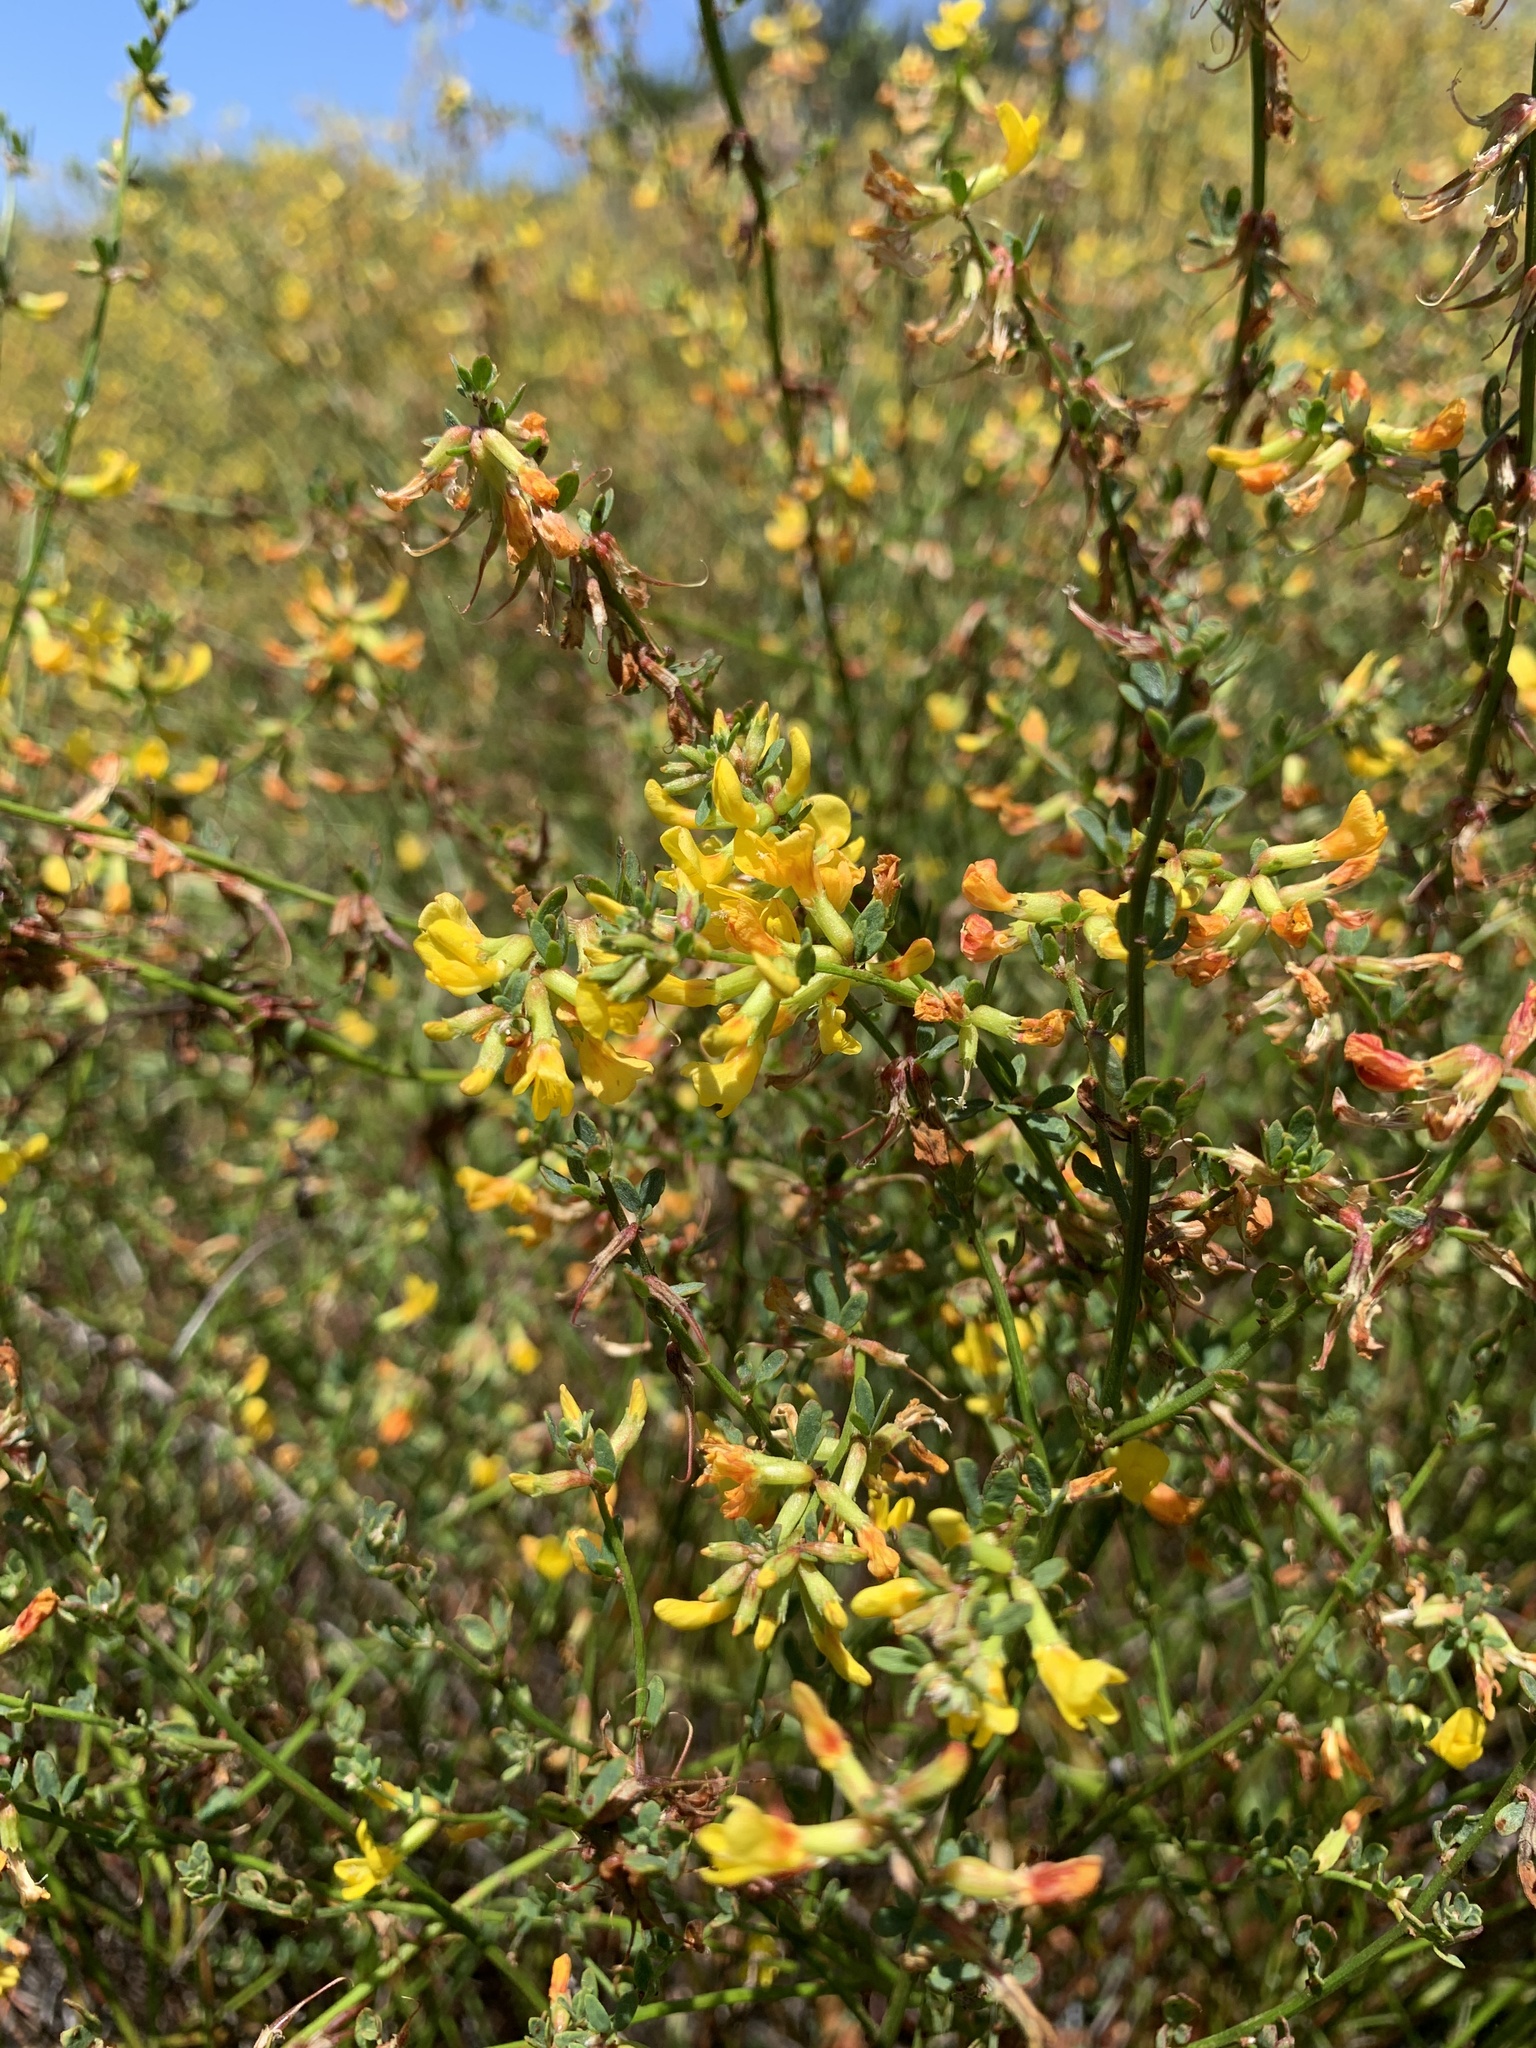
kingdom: Plantae
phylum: Tracheophyta
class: Magnoliopsida
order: Fabales
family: Fabaceae
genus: Acmispon
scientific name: Acmispon glaber
